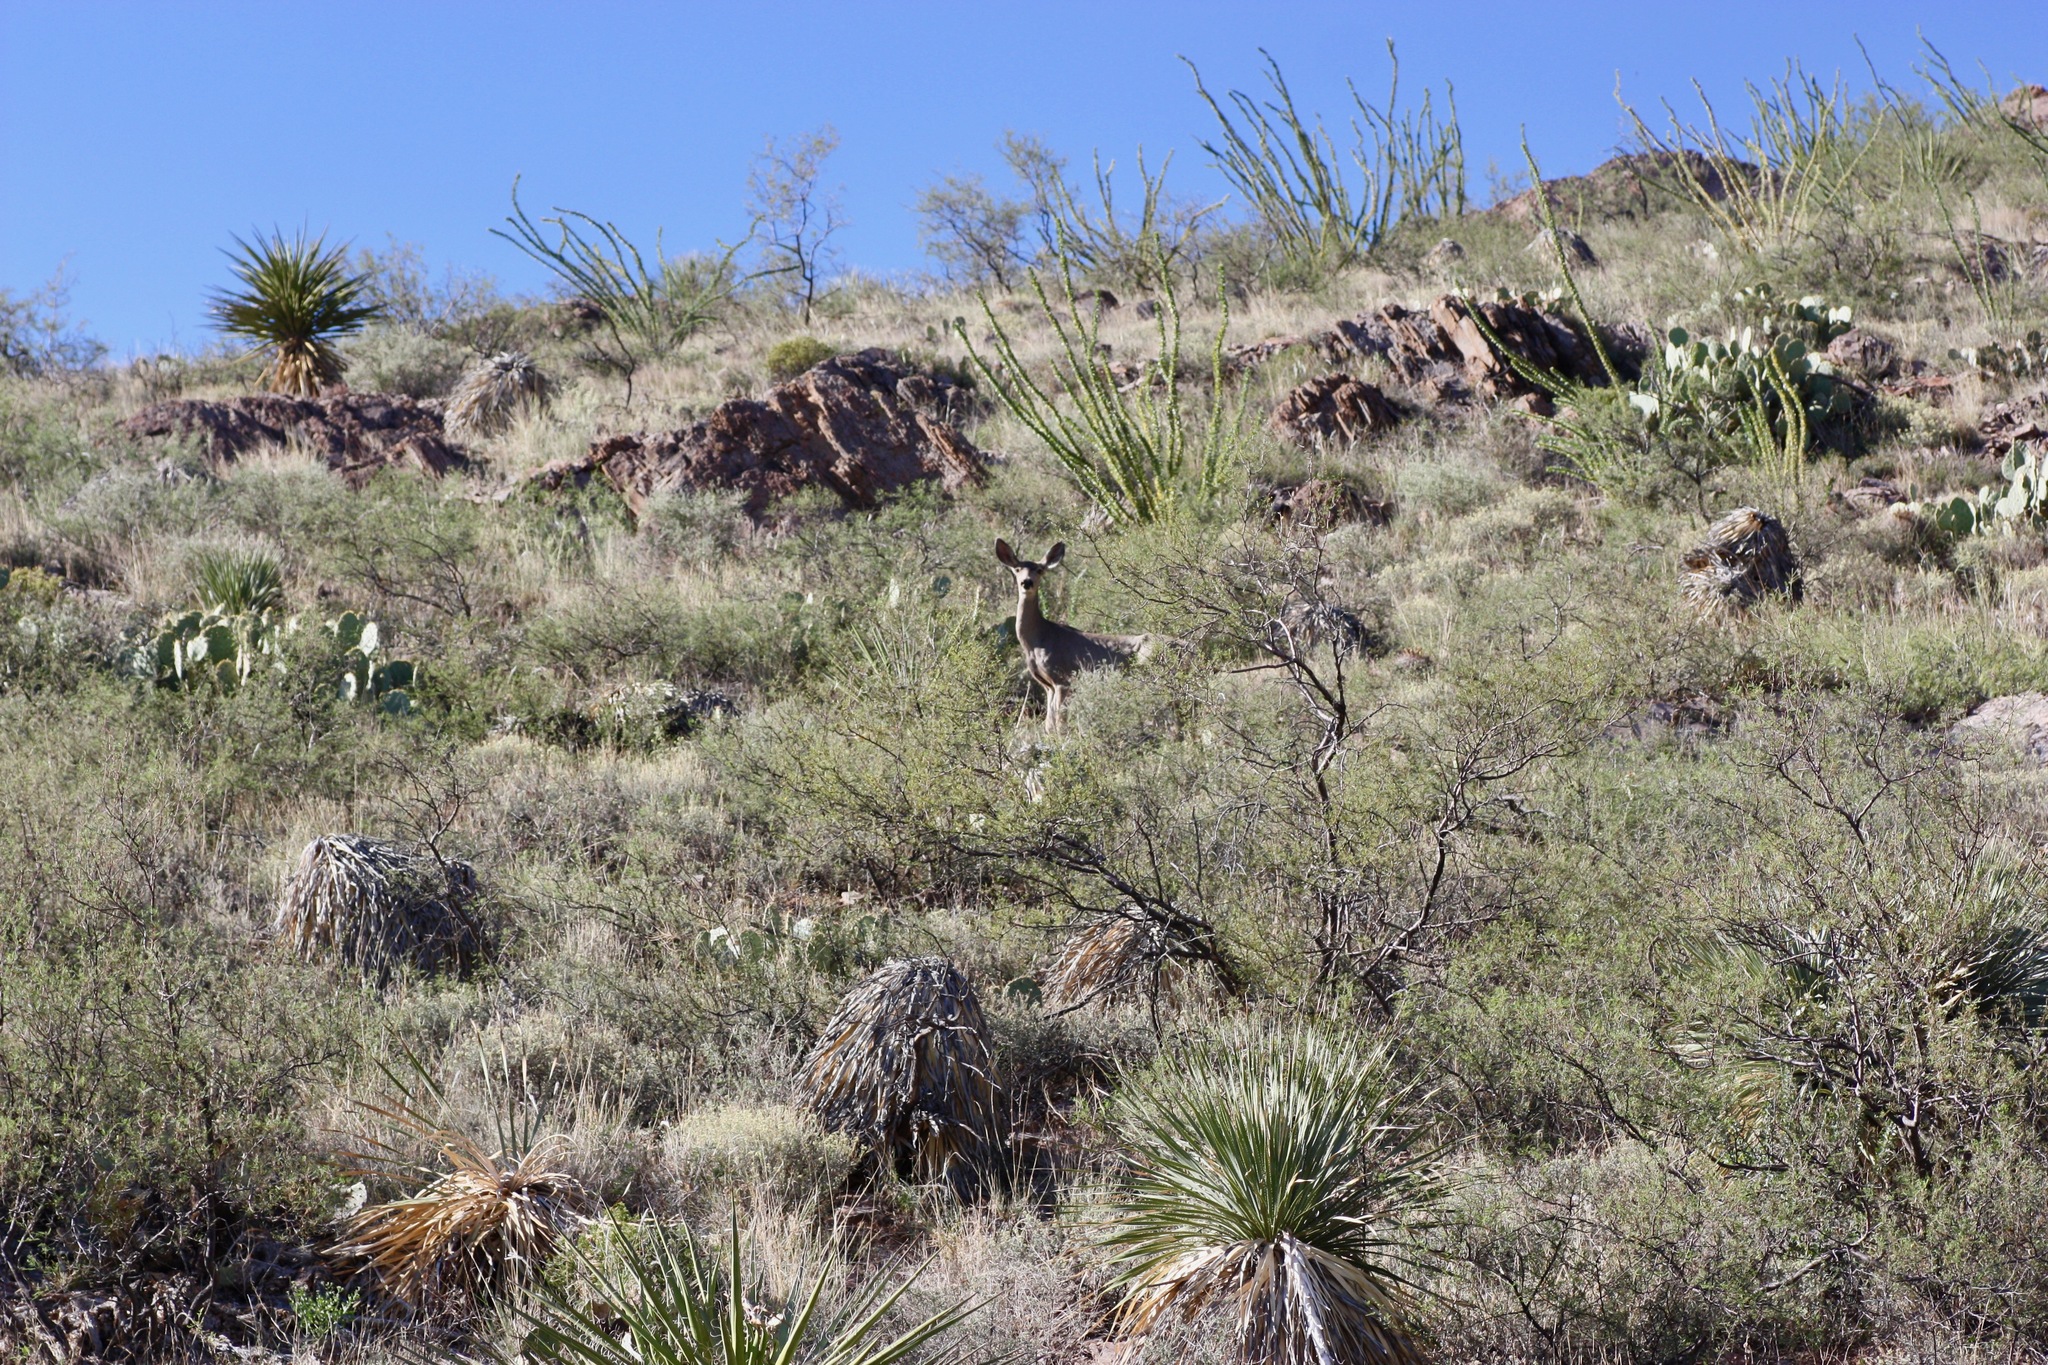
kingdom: Animalia
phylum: Chordata
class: Mammalia
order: Artiodactyla
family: Cervidae
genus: Odocoileus
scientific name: Odocoileus hemionus
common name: Mule deer
